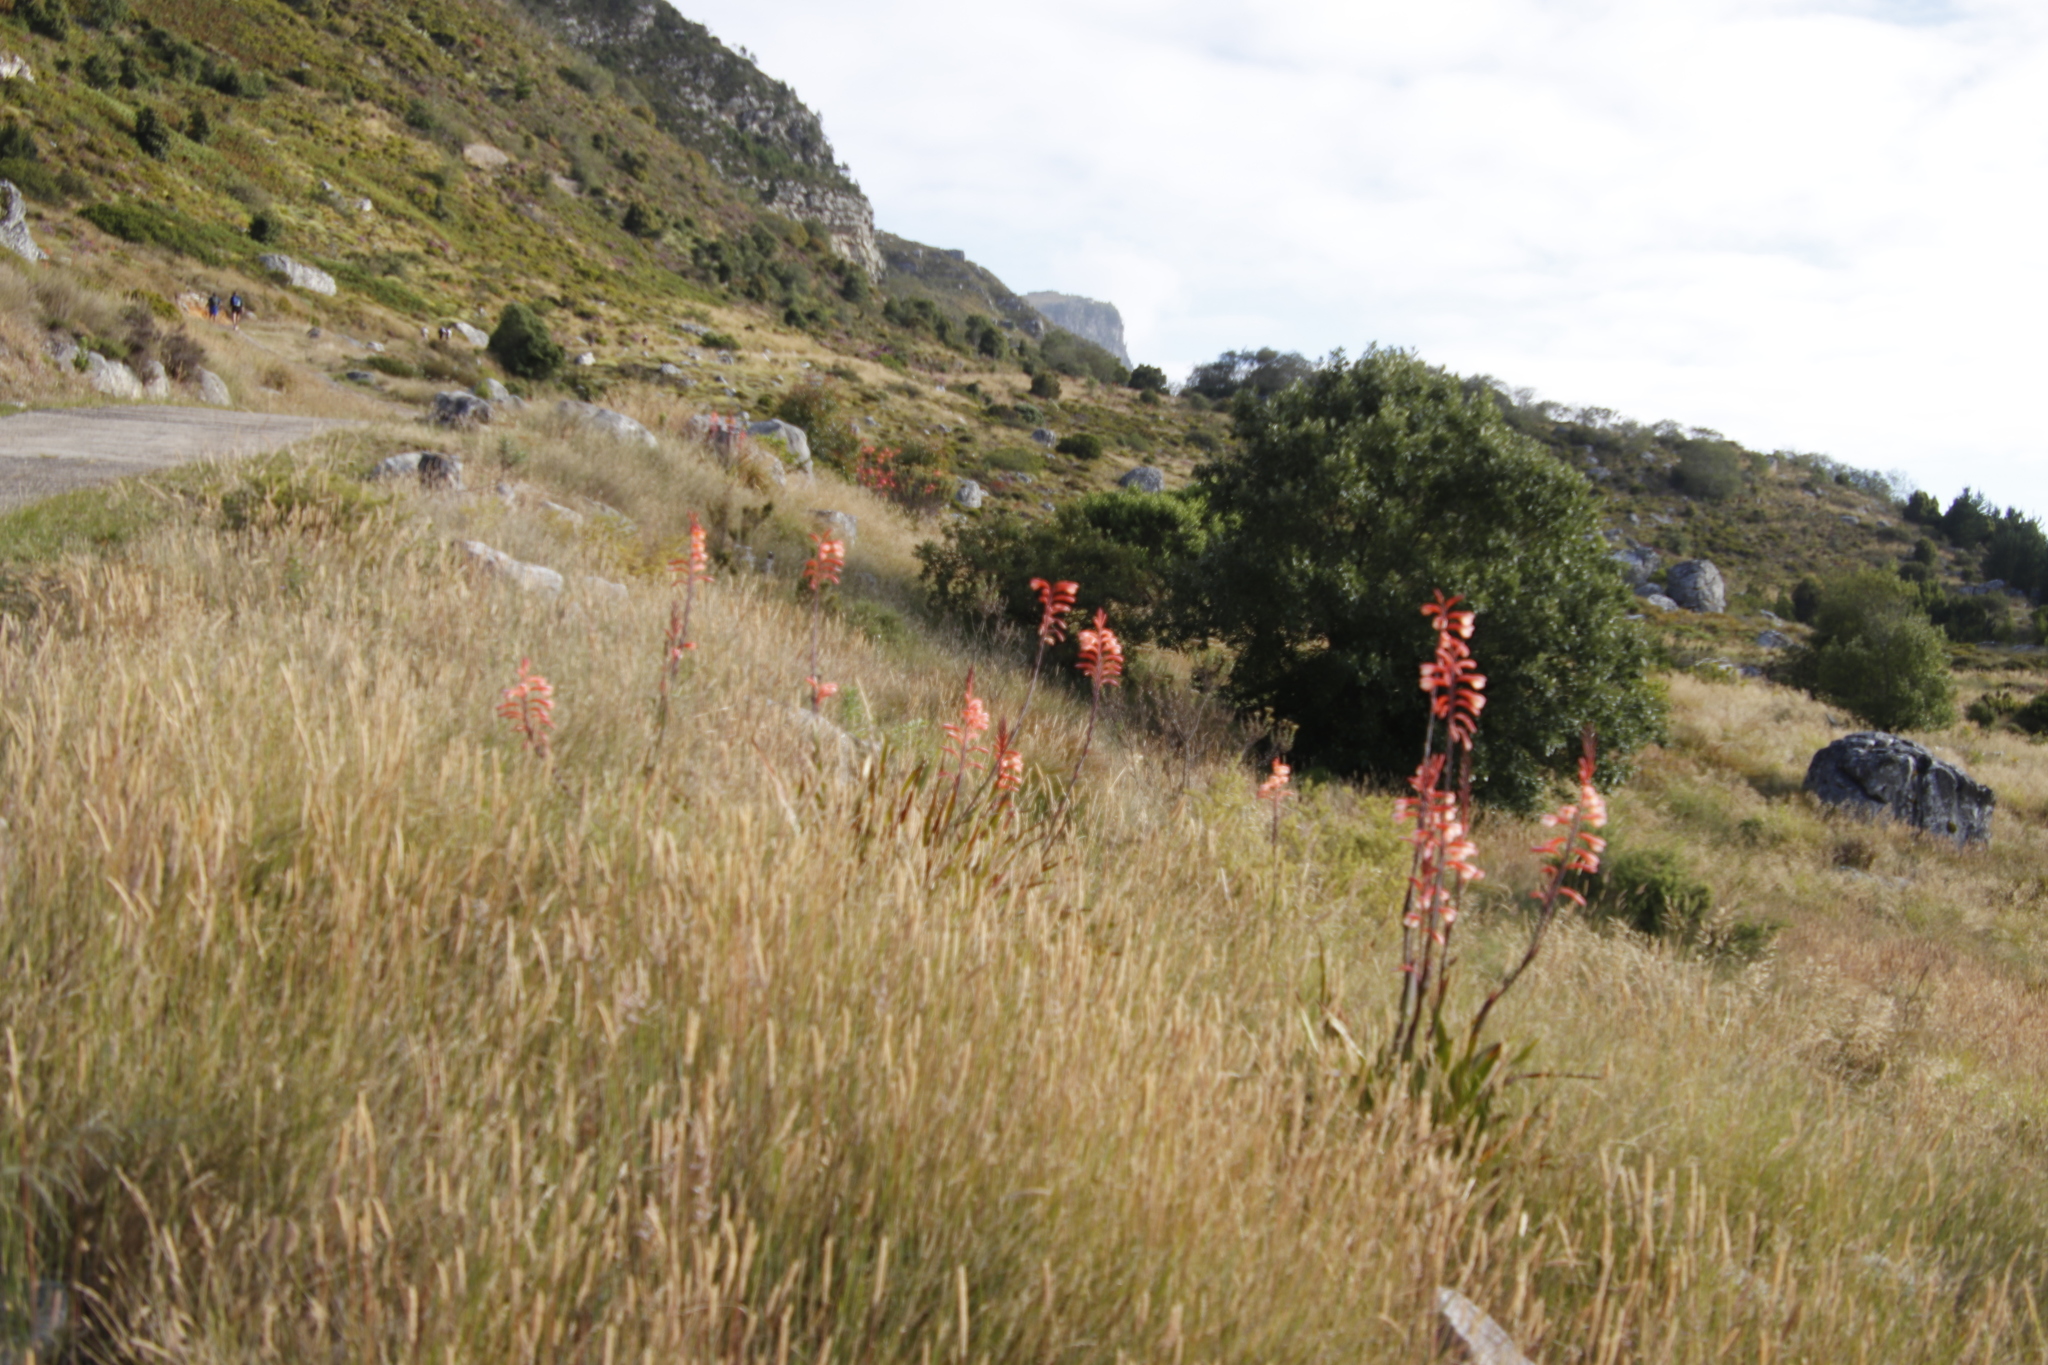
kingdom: Plantae
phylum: Tracheophyta
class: Liliopsida
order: Asparagales
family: Iridaceae
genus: Watsonia
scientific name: Watsonia tabularis
